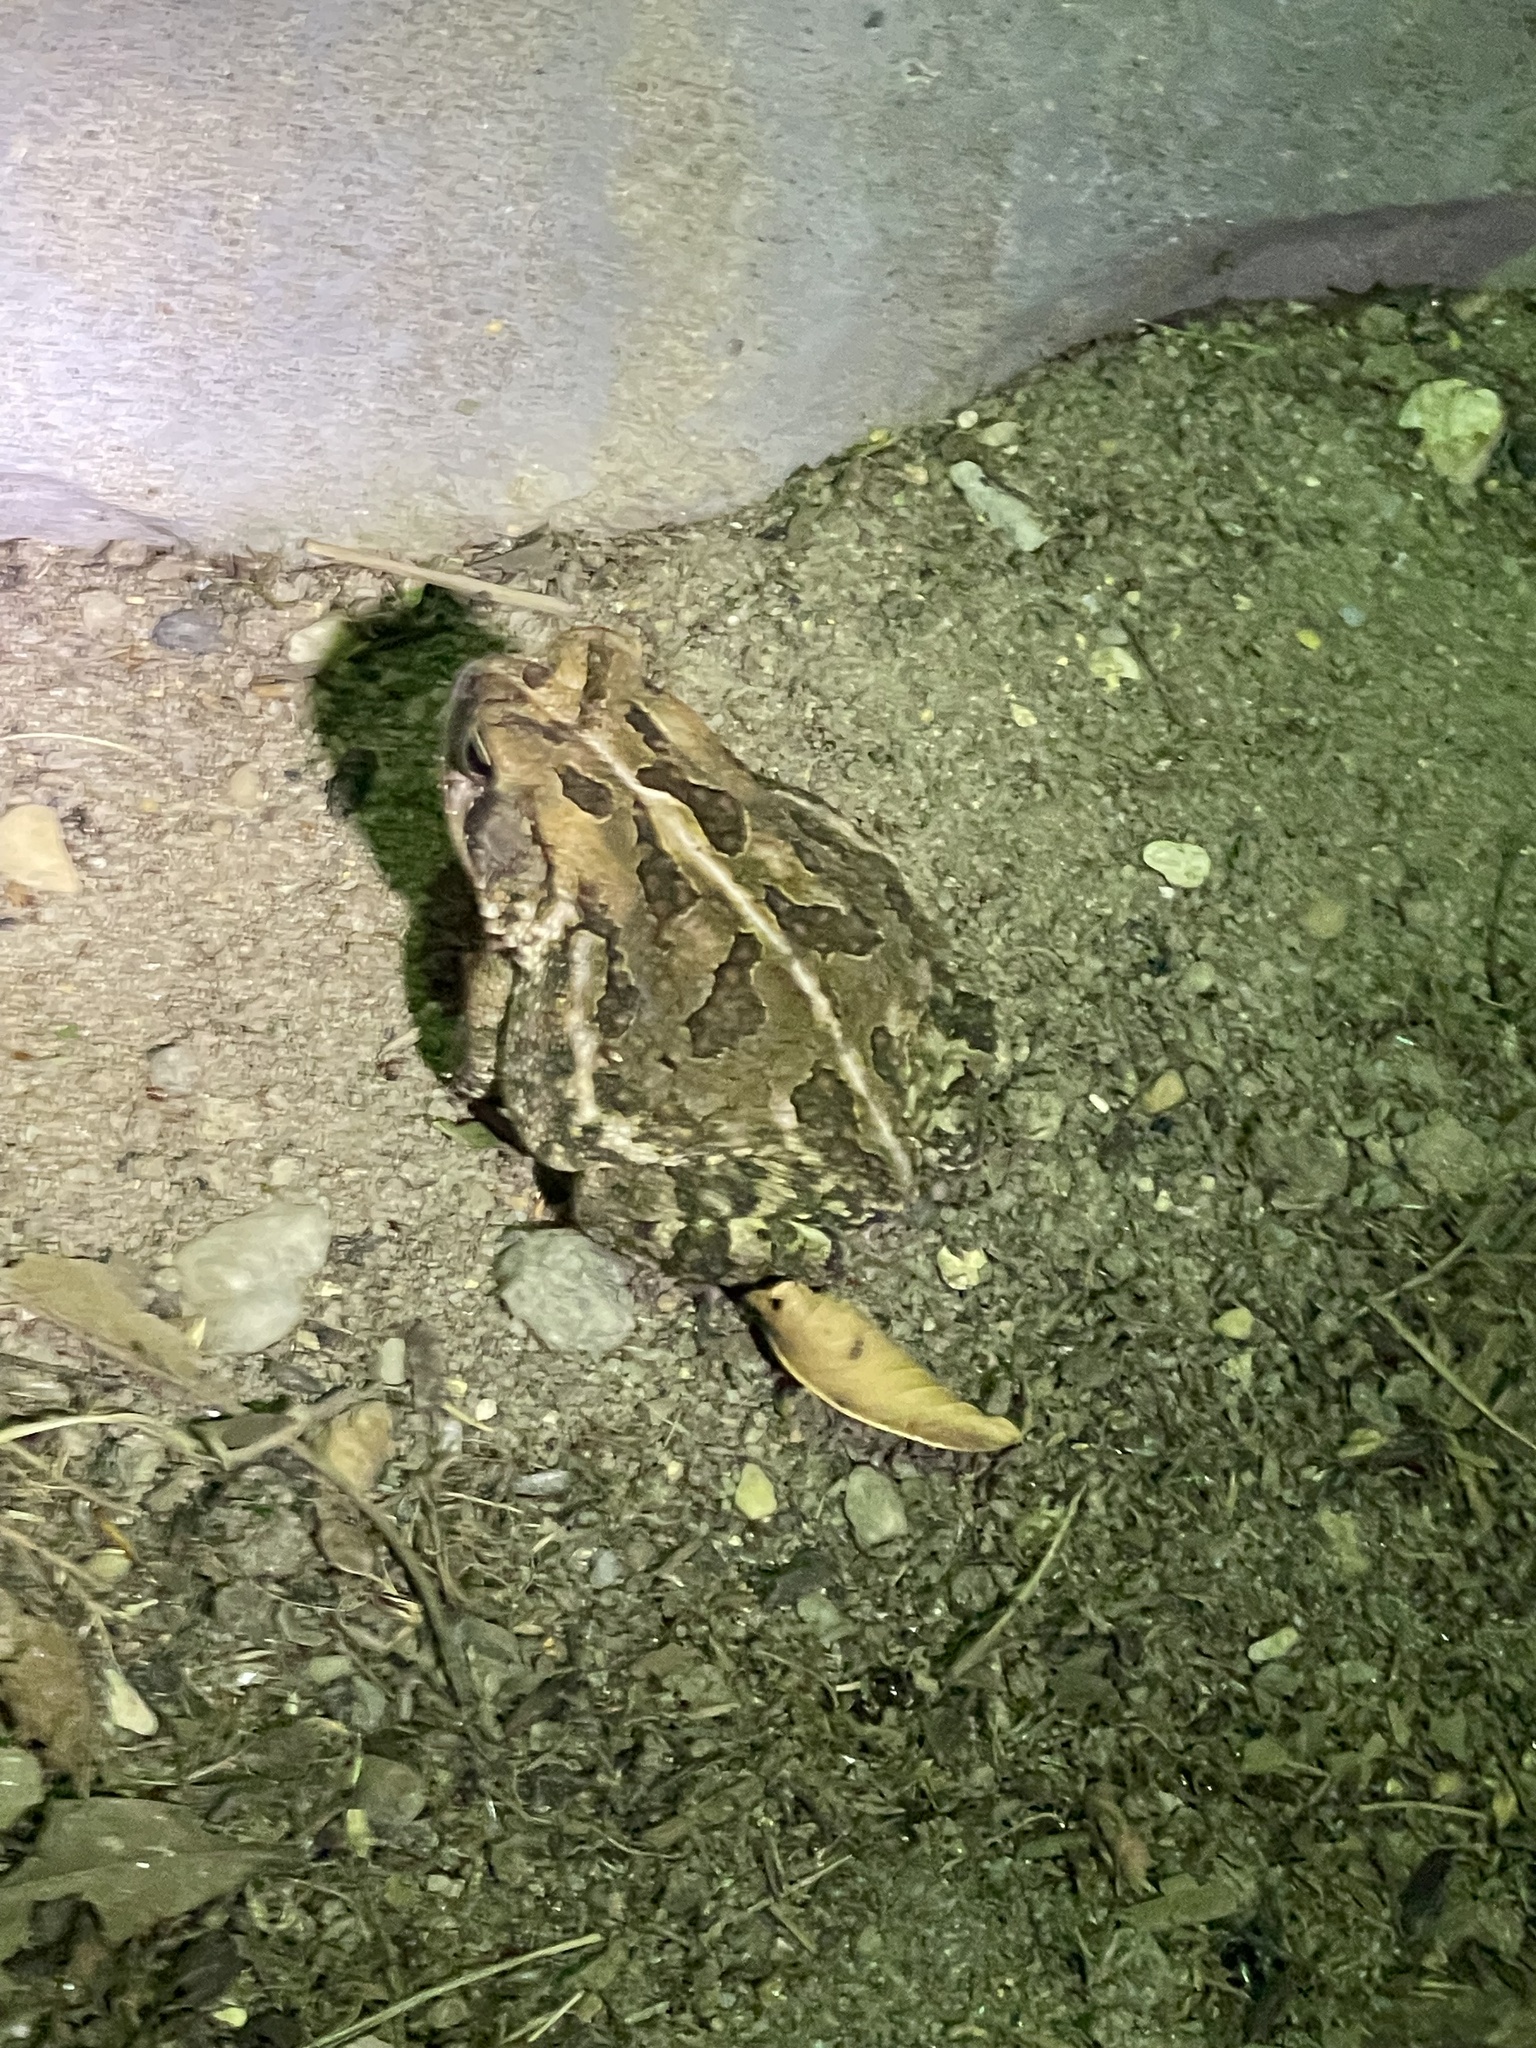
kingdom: Animalia
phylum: Chordata
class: Amphibia
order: Anura
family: Bufonidae
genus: Anaxyrus
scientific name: Anaxyrus fowleri
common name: Fowler's toad
